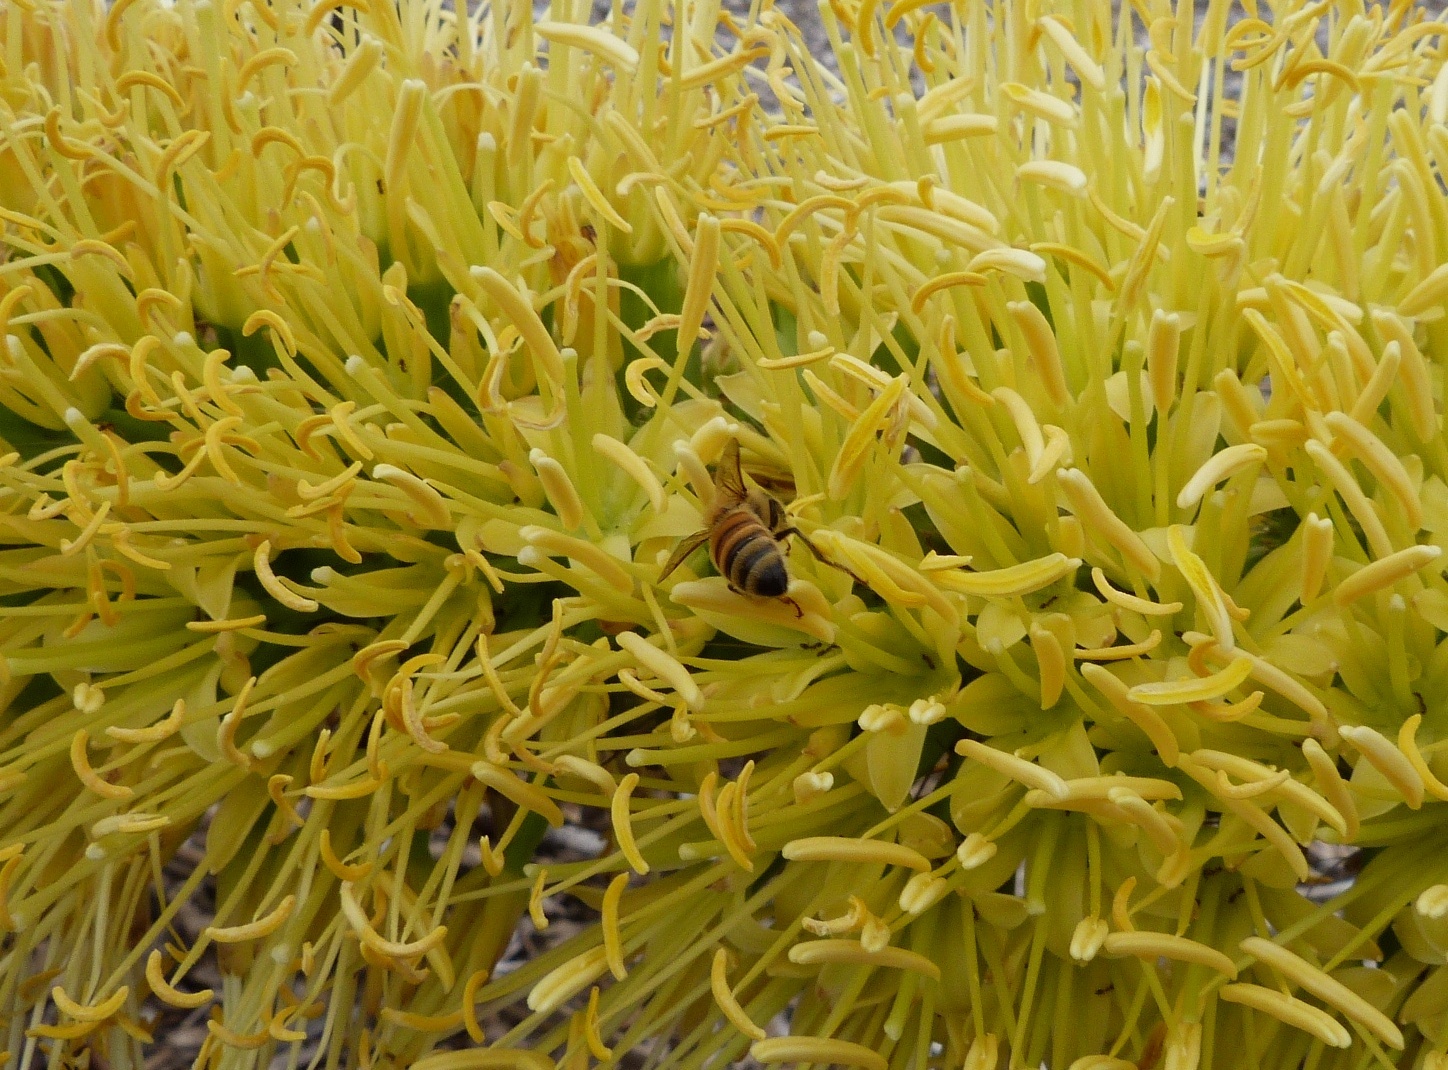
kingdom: Animalia
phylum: Arthropoda
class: Insecta
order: Hymenoptera
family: Apidae
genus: Apis
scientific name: Apis mellifera
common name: Honey bee
